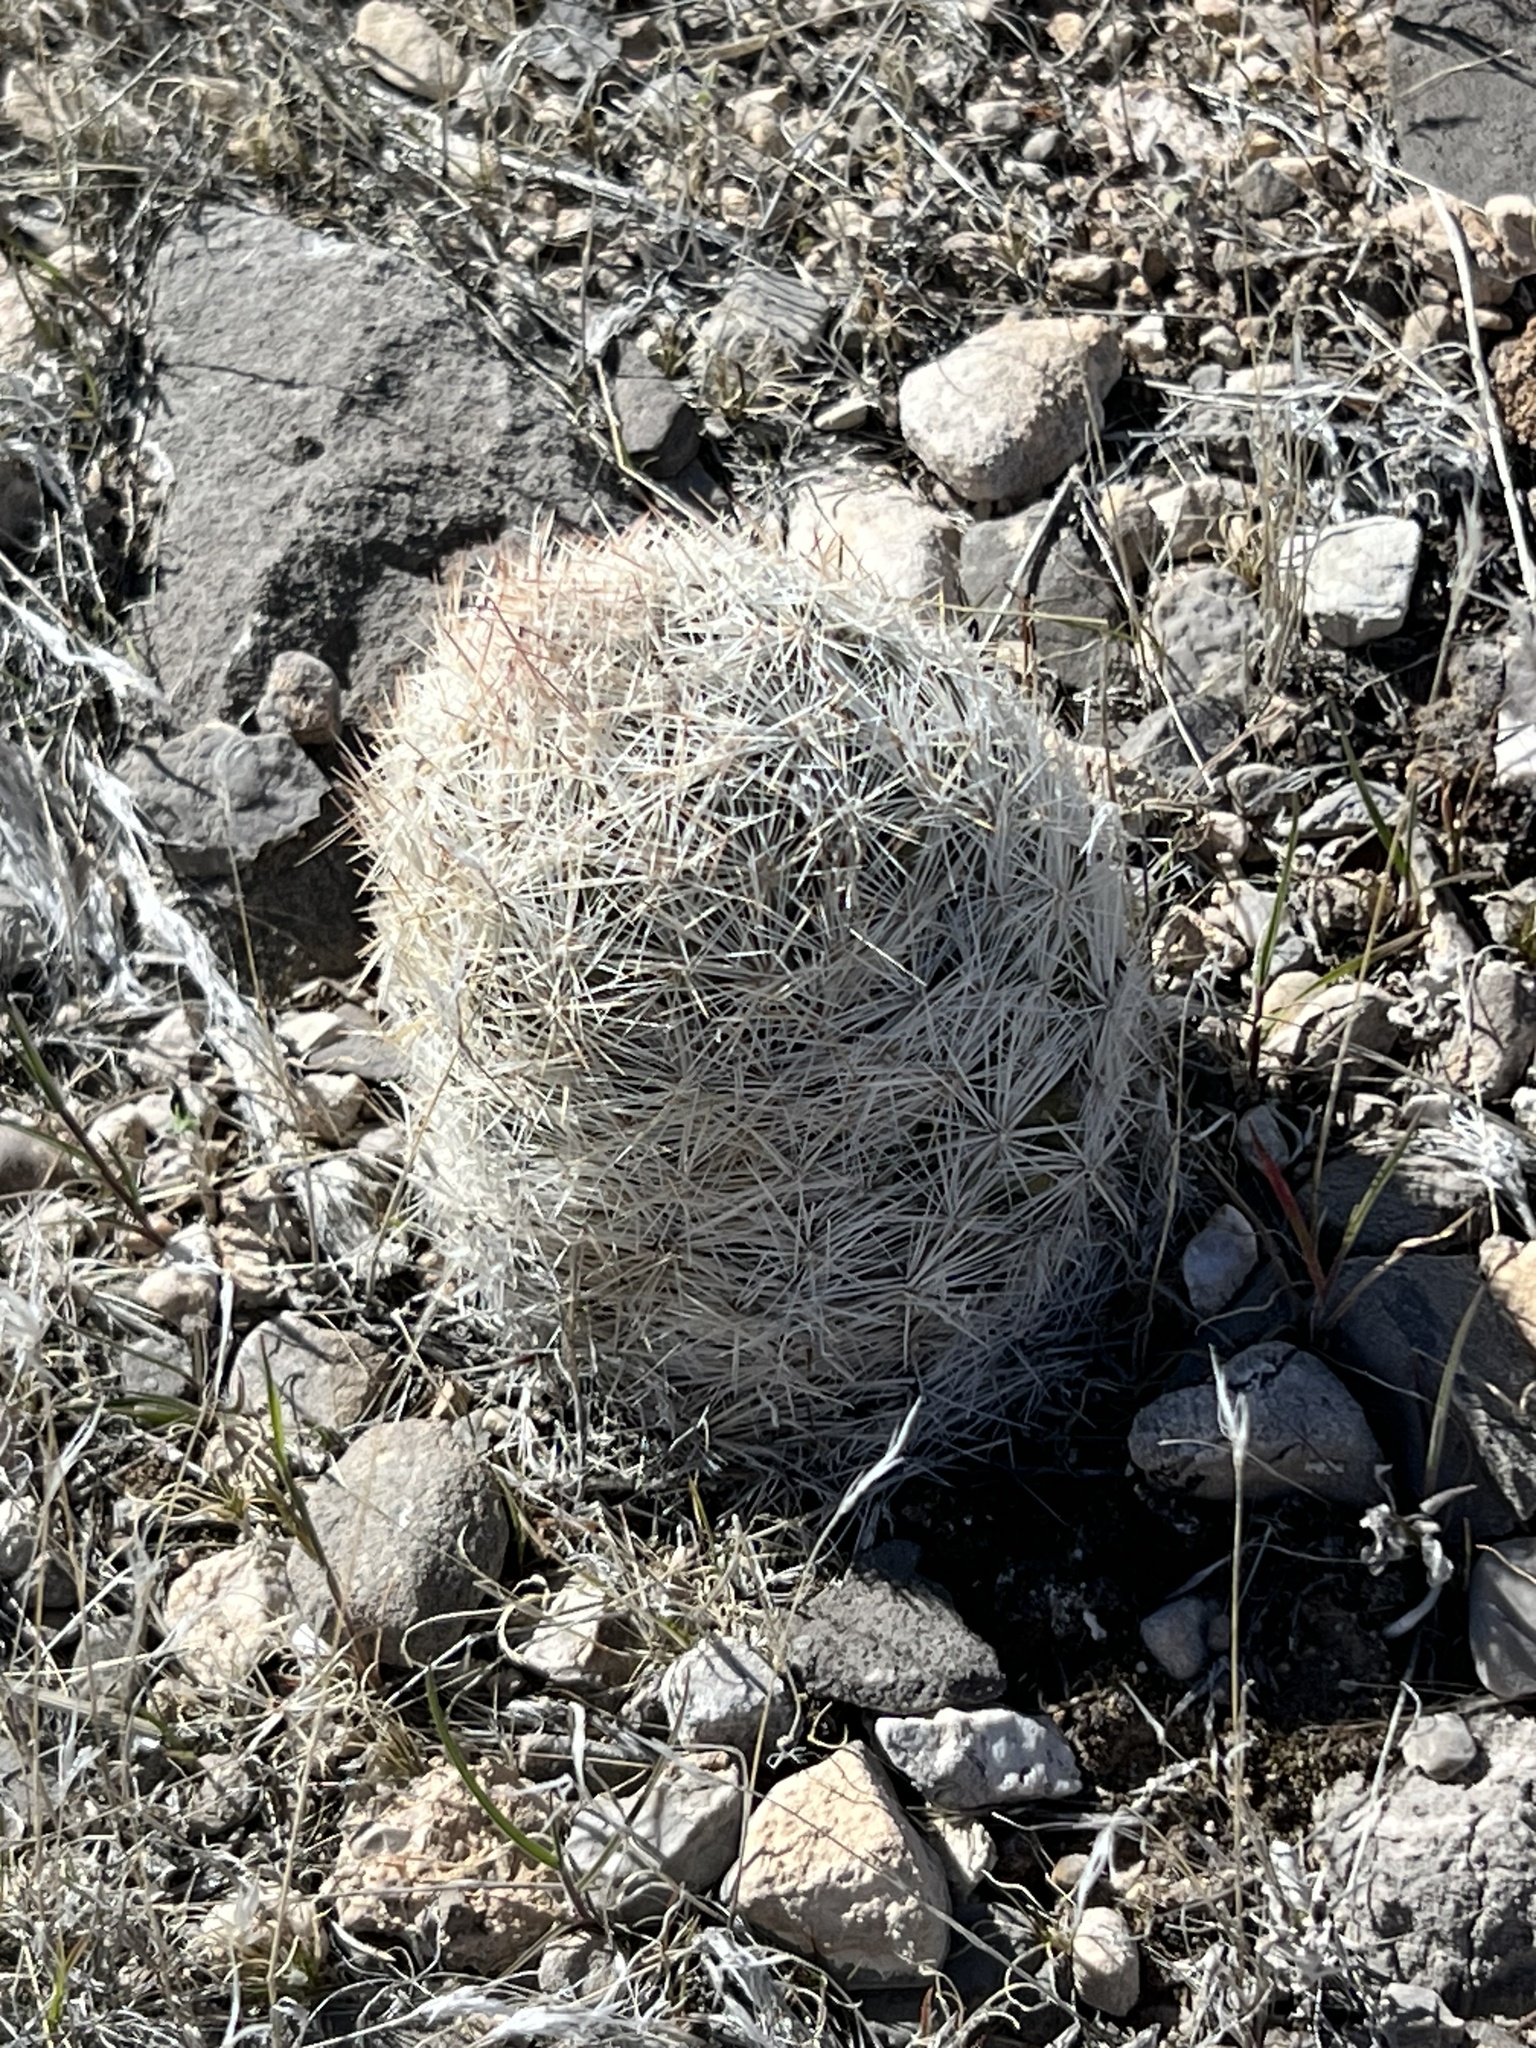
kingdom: Plantae
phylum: Tracheophyta
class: Magnoliopsida
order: Caryophyllales
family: Cactaceae
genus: Pelecyphora
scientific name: Pelecyphora dasyacantha
